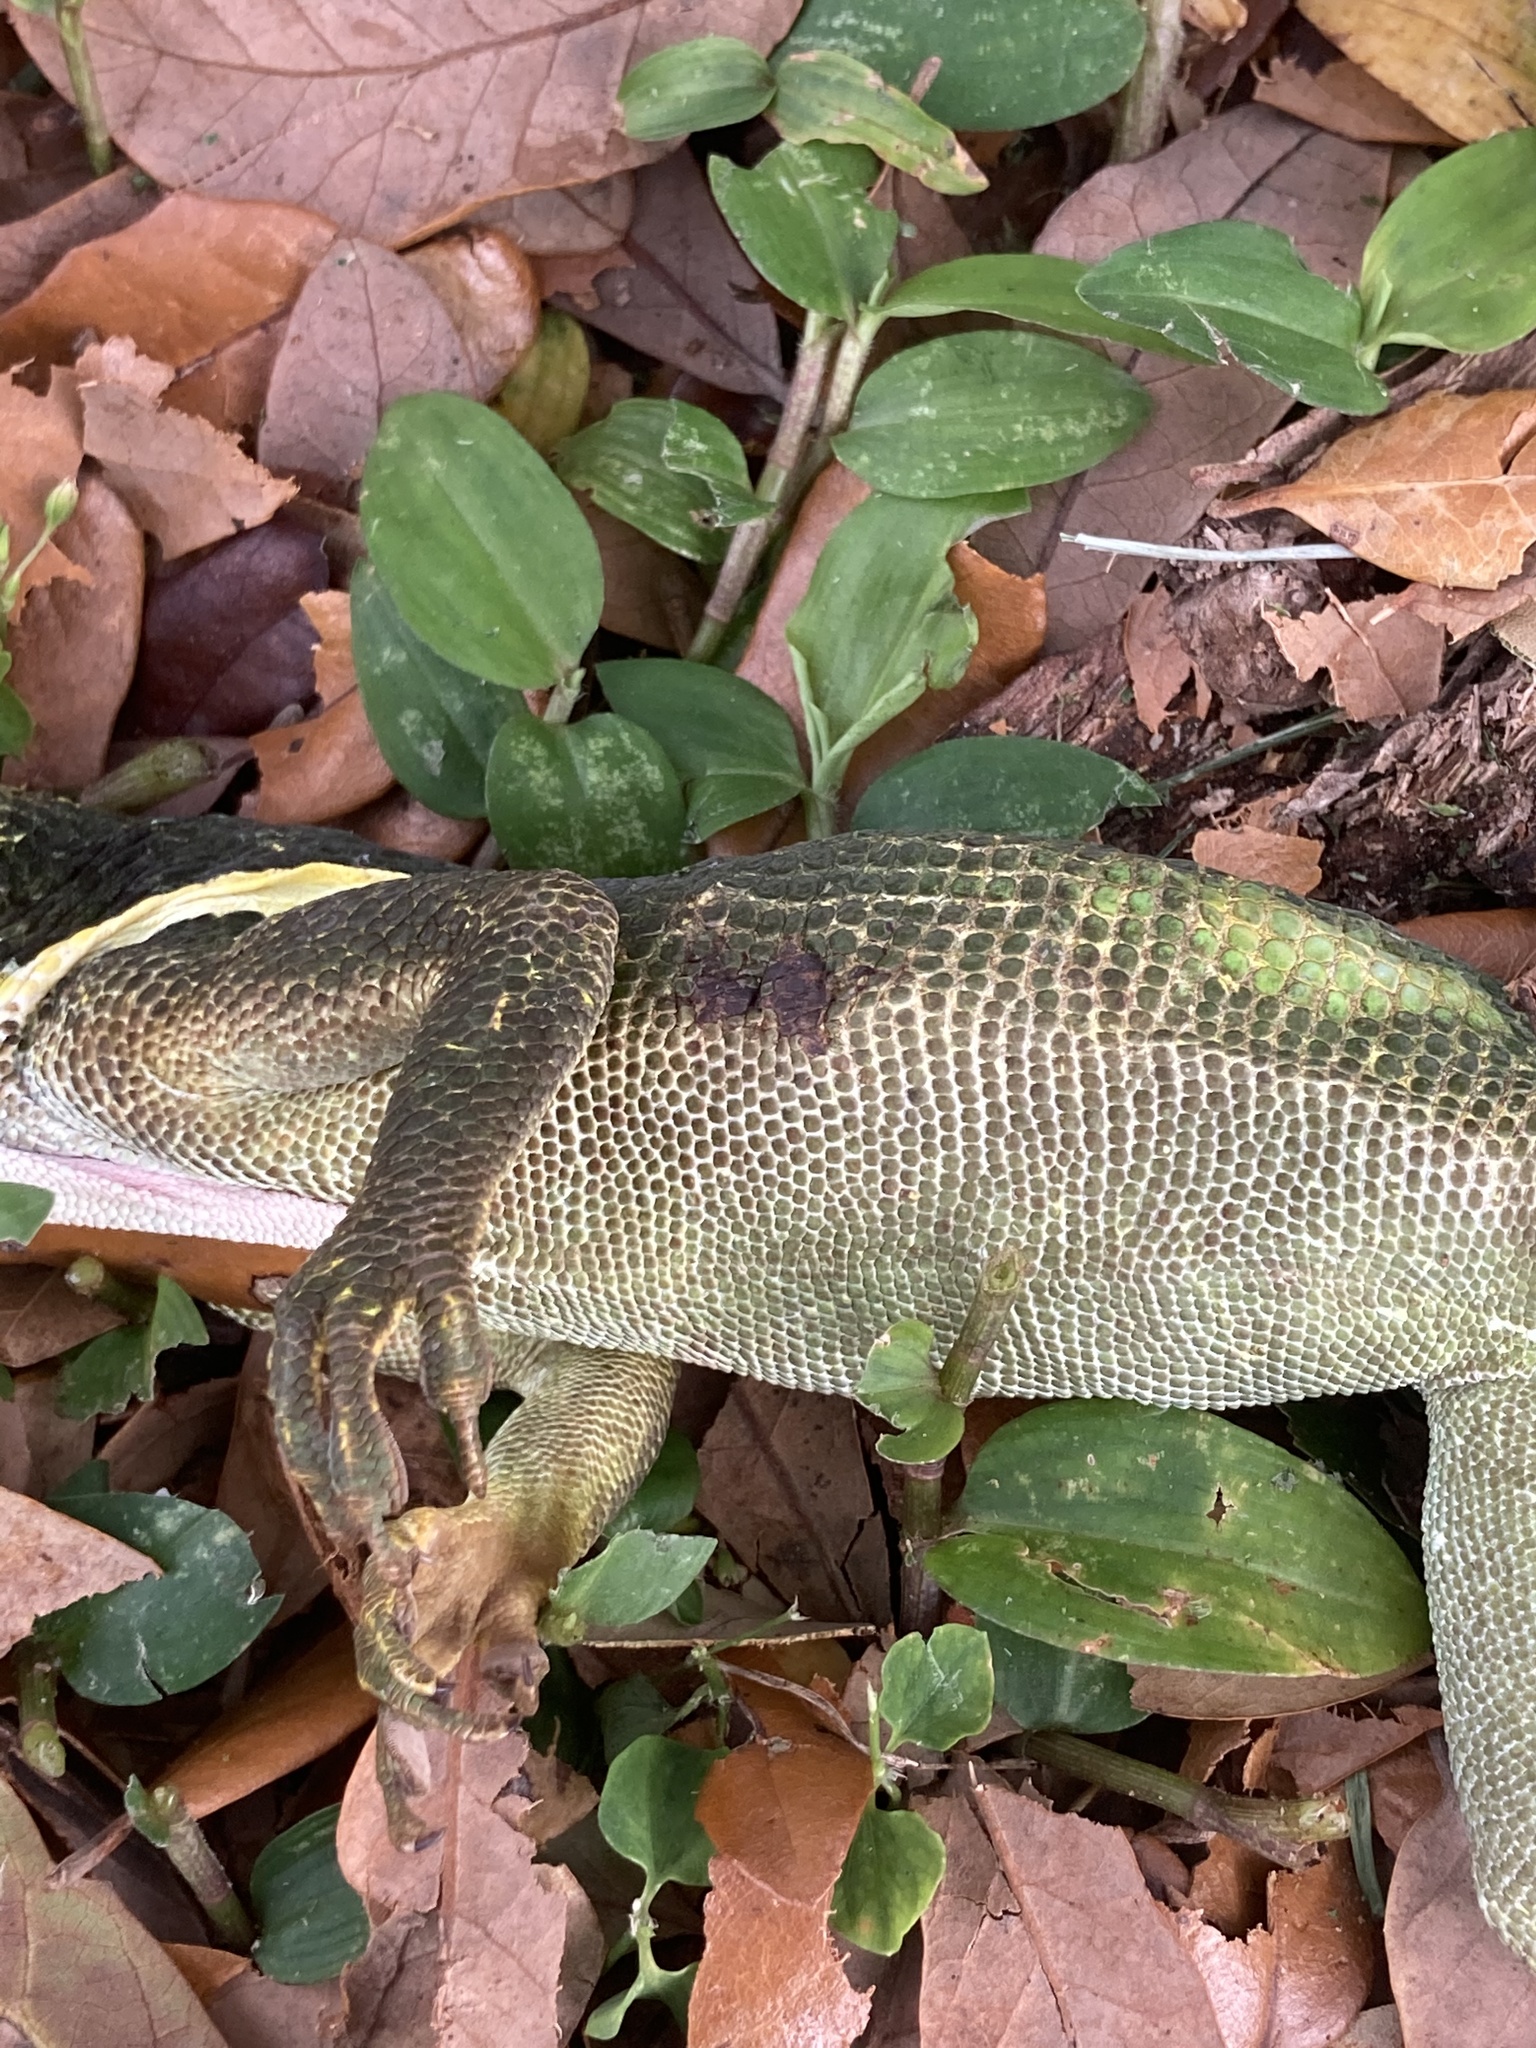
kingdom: Animalia
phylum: Chordata
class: Squamata
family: Dactyloidae
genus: Anolis
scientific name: Anolis equestris
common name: Knight anole
